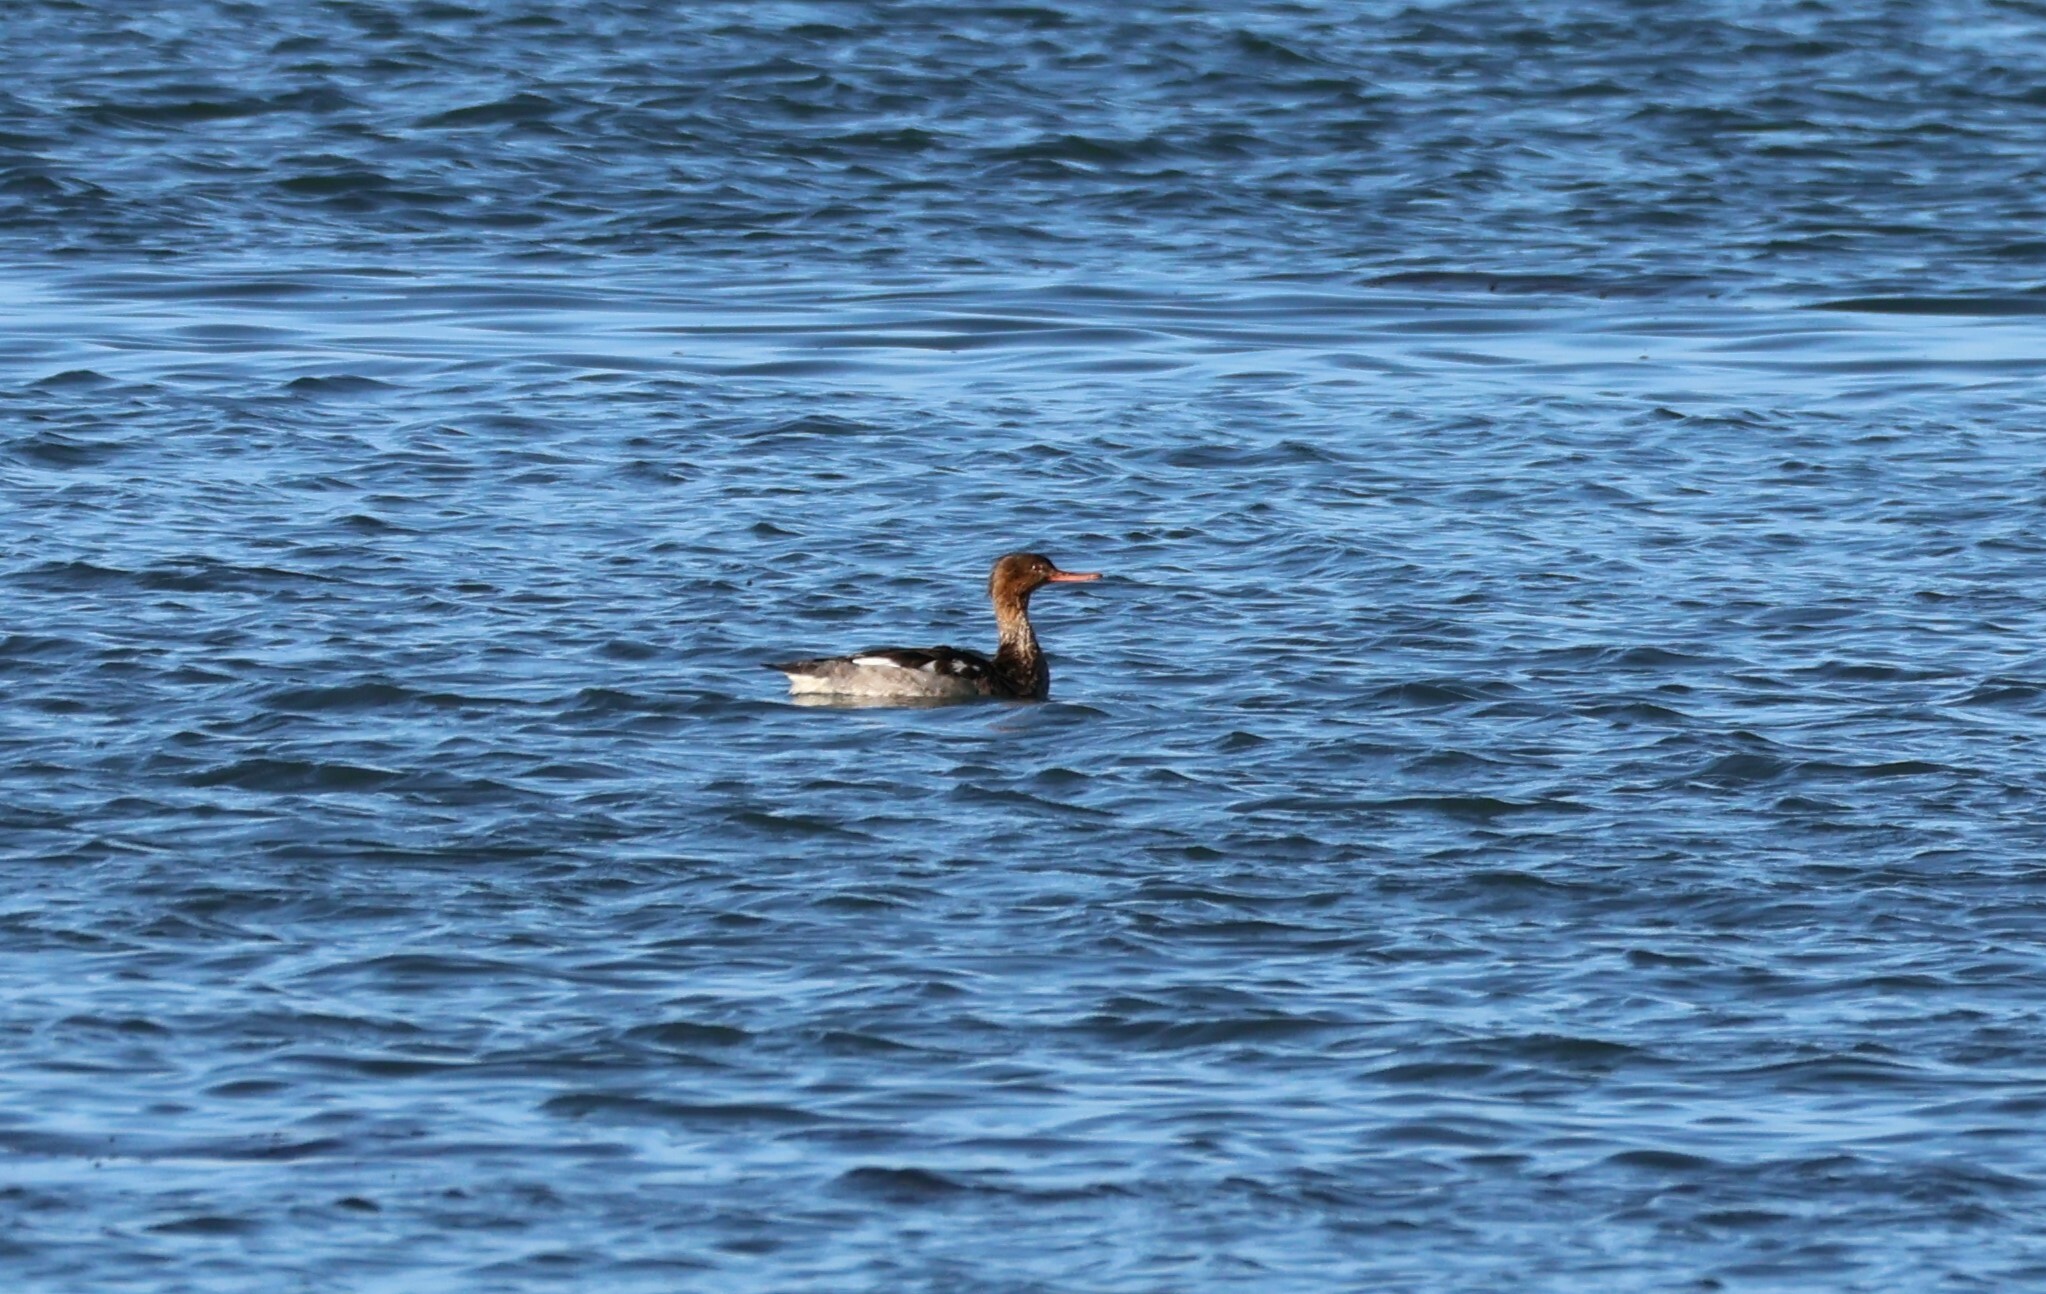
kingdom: Animalia
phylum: Chordata
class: Aves
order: Anseriformes
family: Anatidae
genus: Mergus
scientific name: Mergus serrator
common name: Red-breasted merganser
